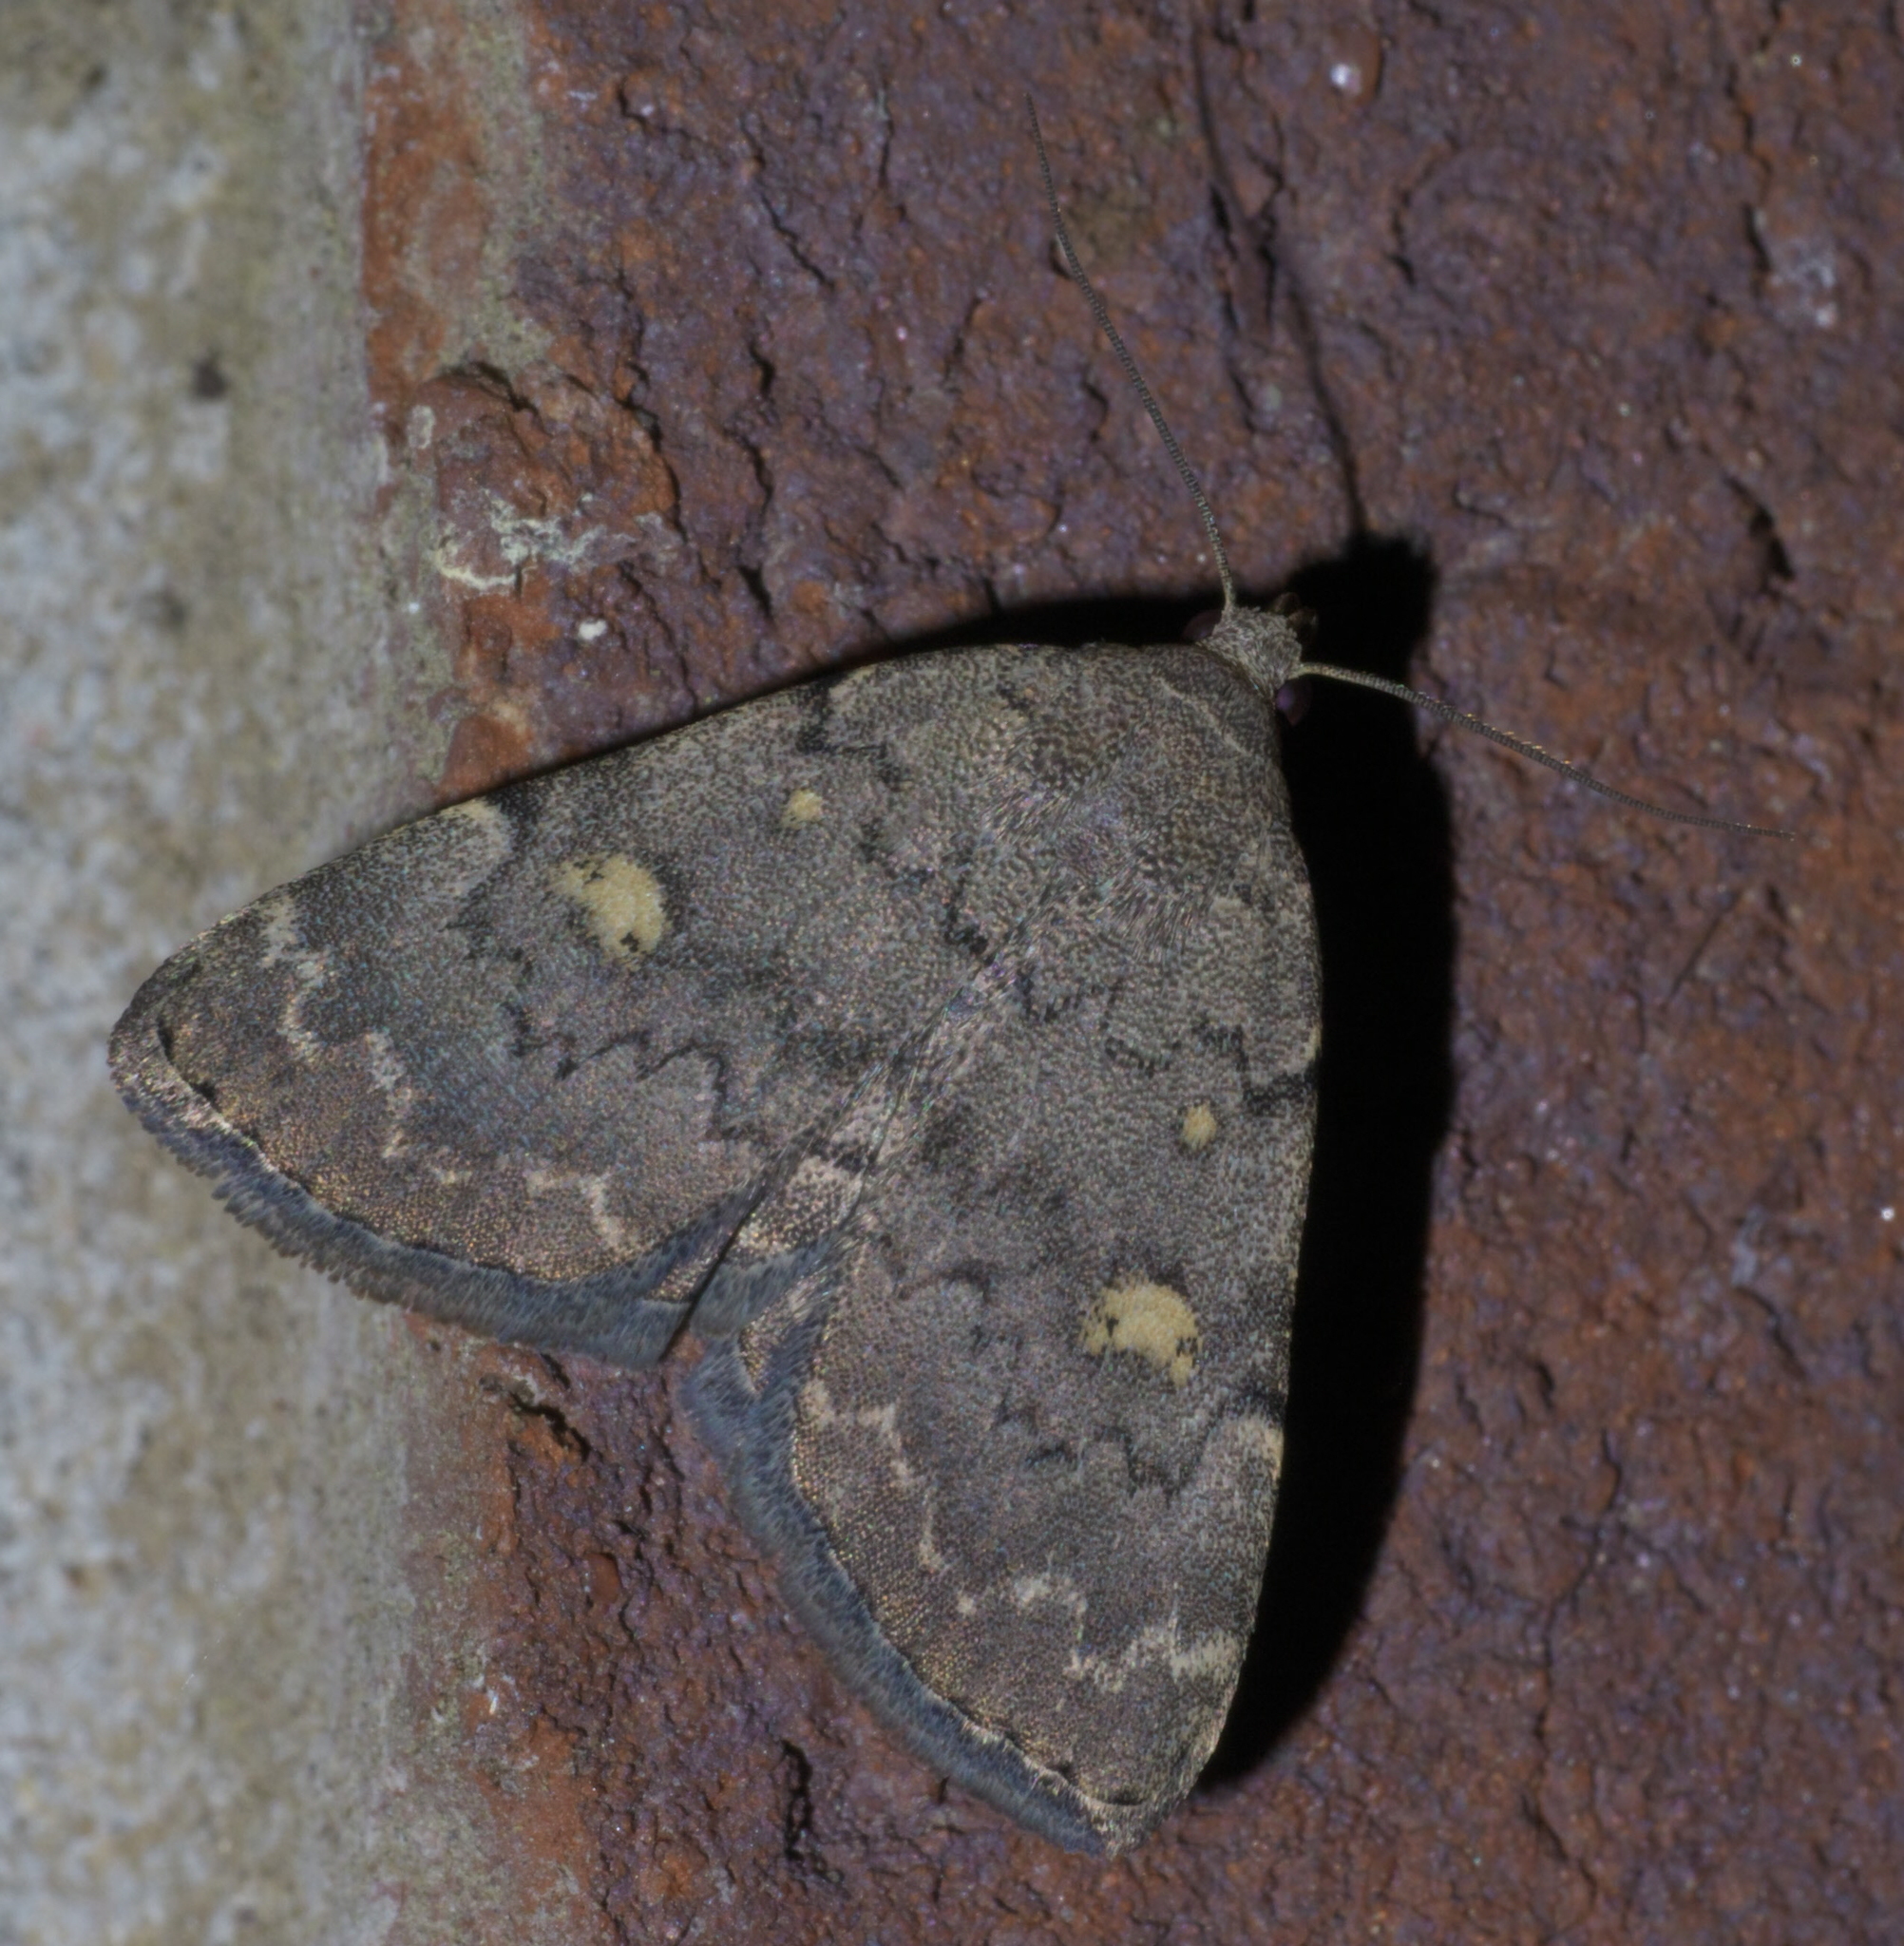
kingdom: Animalia
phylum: Arthropoda
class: Insecta
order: Lepidoptera
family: Erebidae
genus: Idia
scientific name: Idia aemula
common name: Common idia moth
